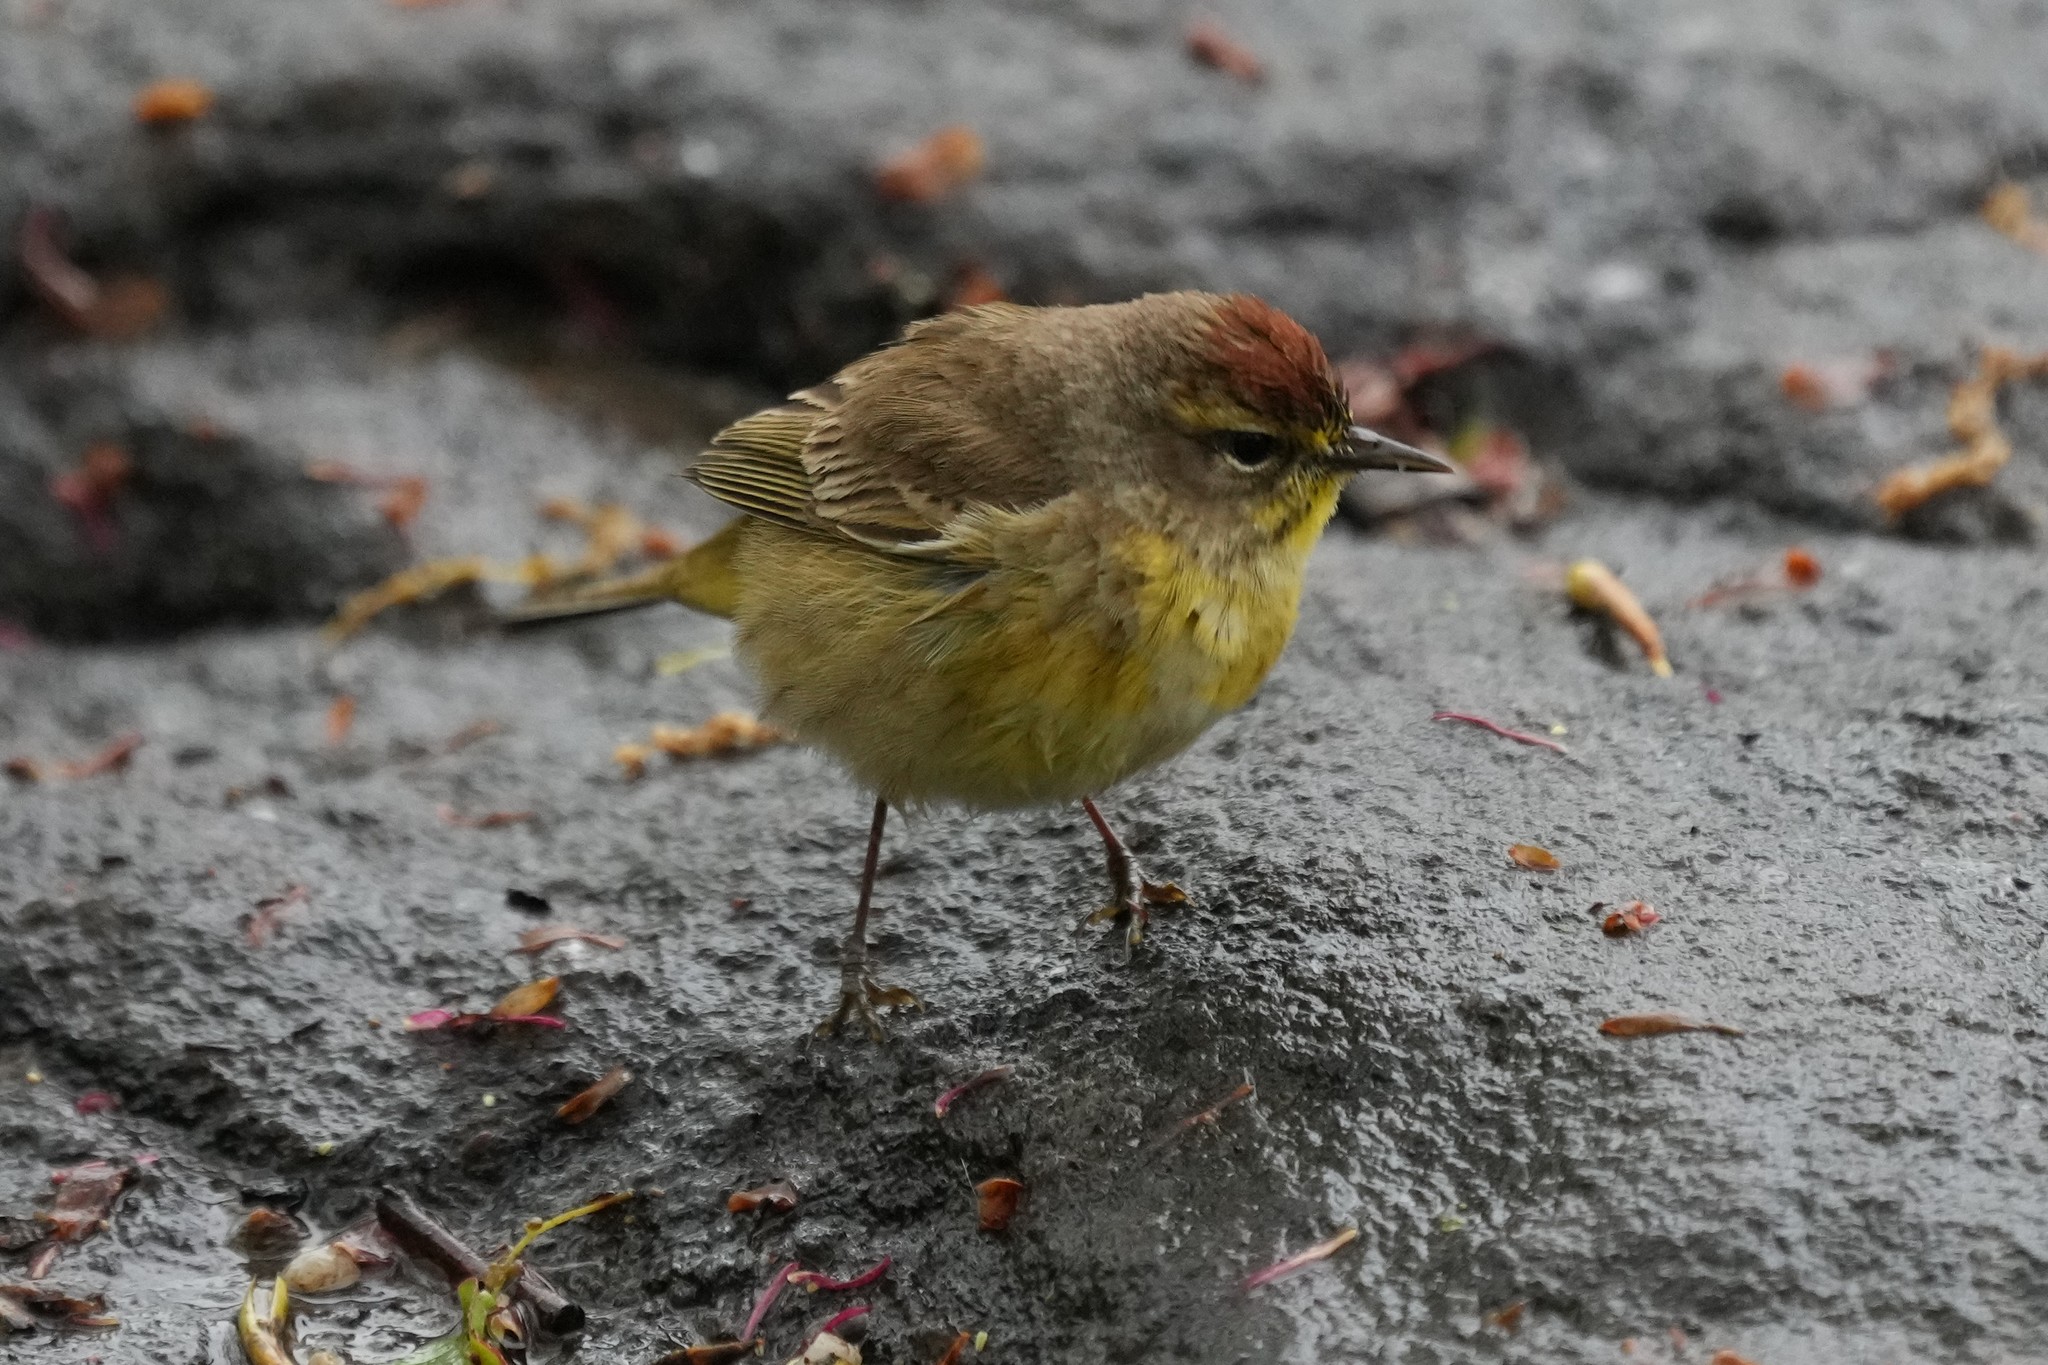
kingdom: Animalia
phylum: Chordata
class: Aves
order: Passeriformes
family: Parulidae
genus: Setophaga
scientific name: Setophaga palmarum
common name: Palm warbler
